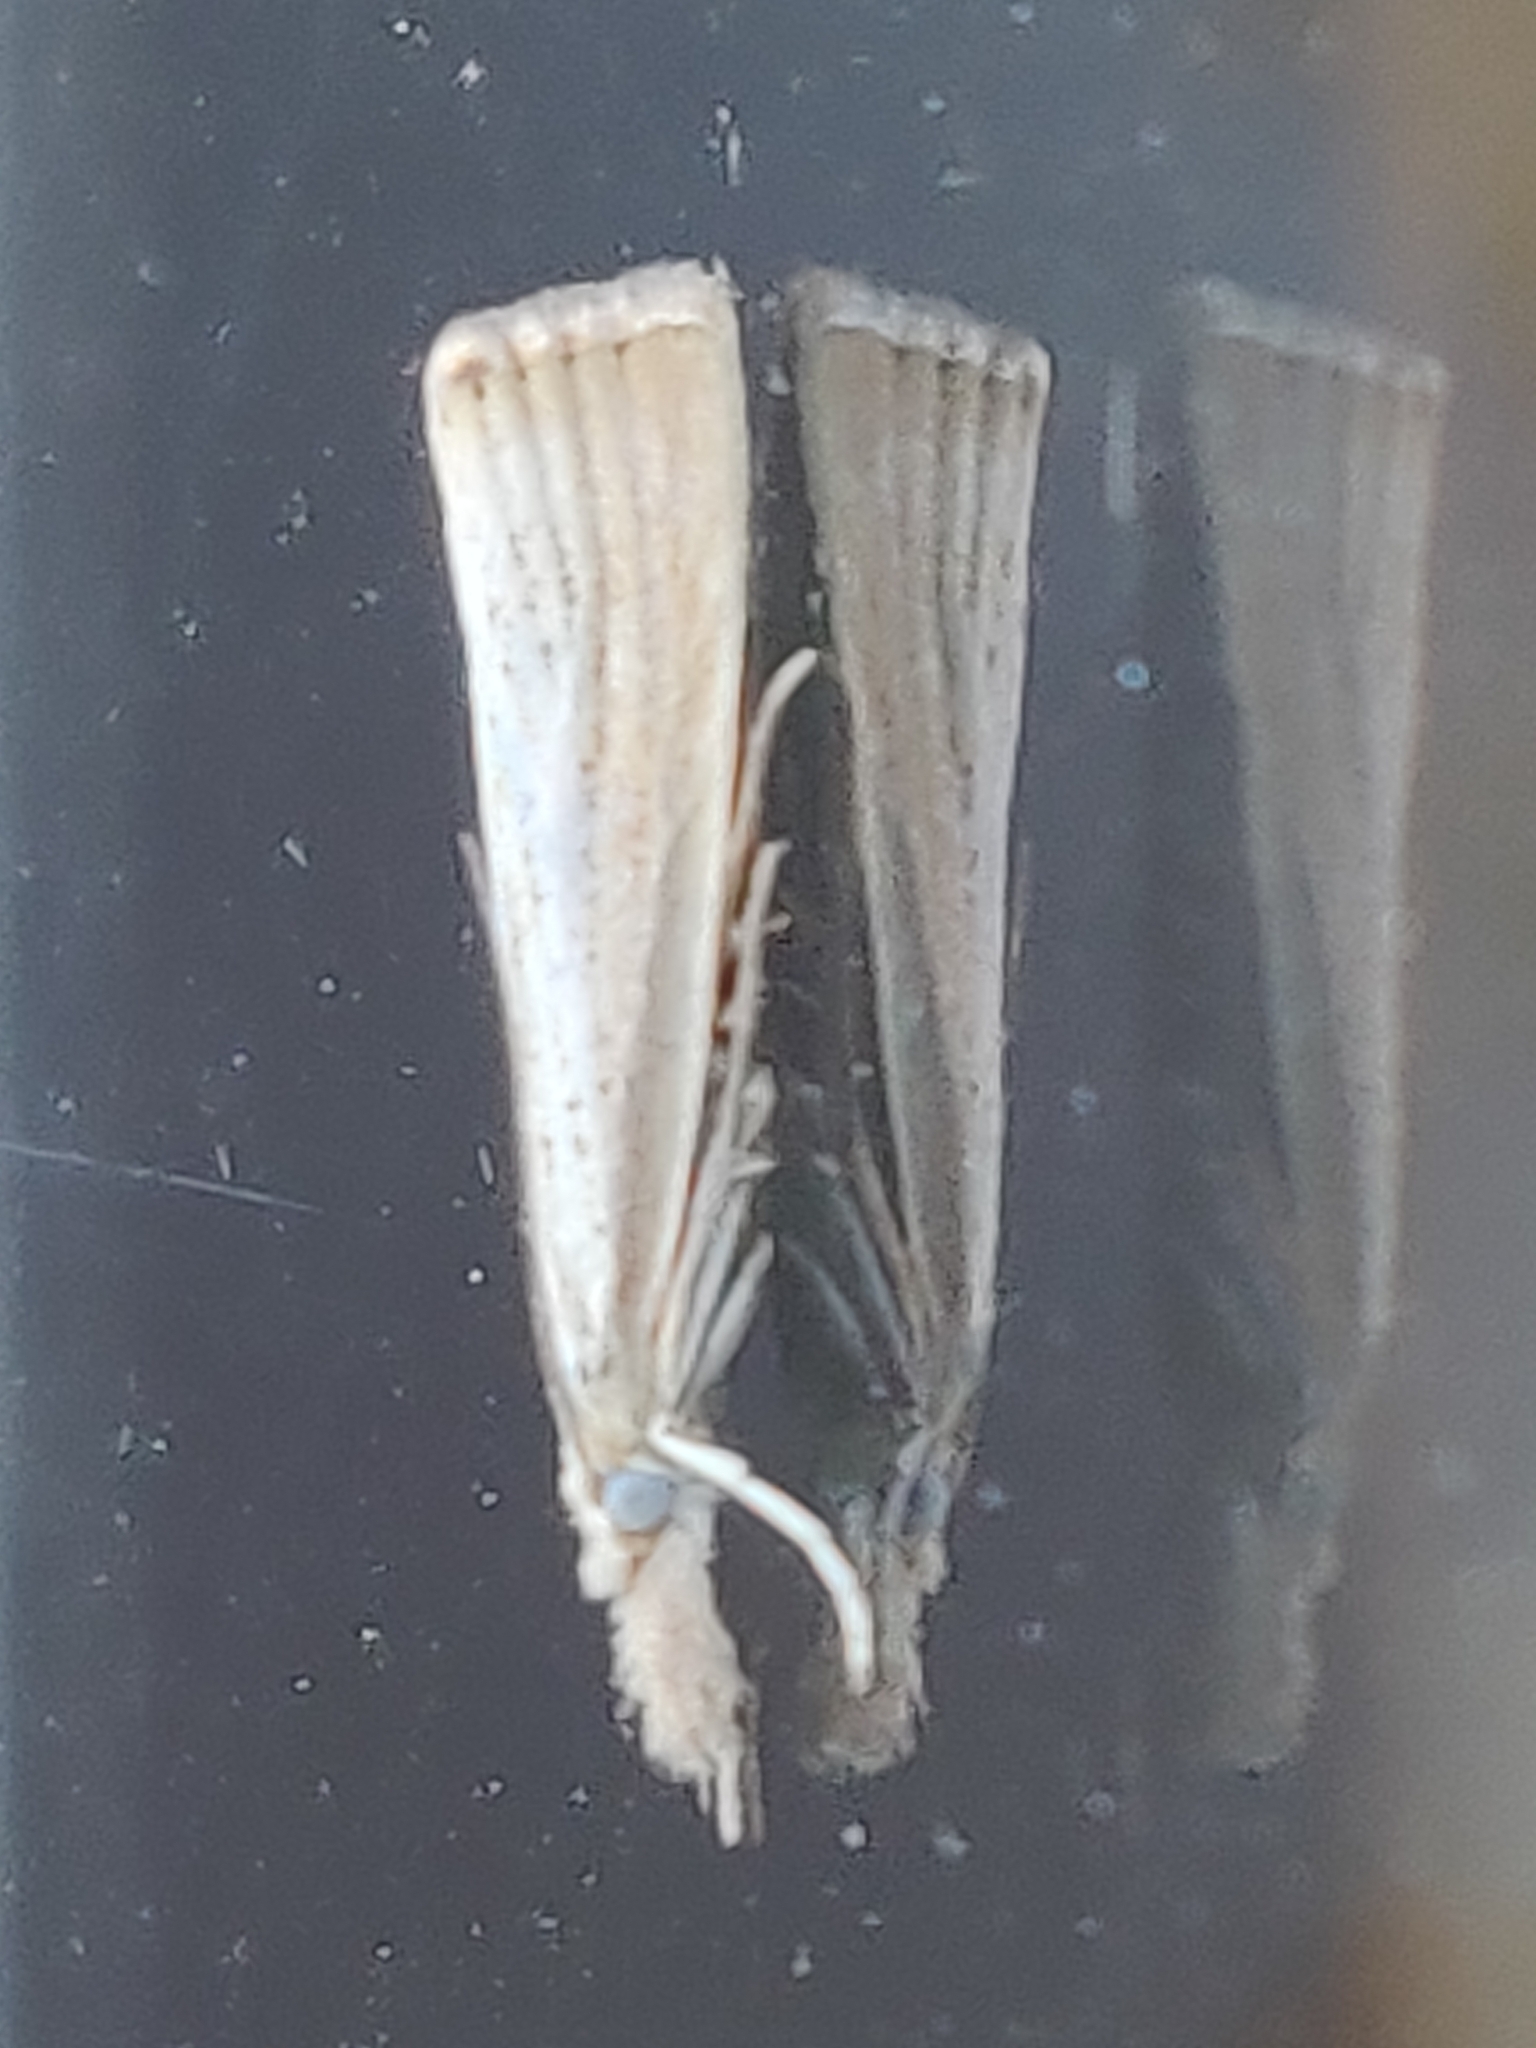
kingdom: Animalia
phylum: Arthropoda
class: Insecta
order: Lepidoptera
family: Crambidae
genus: Agriphila
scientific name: Agriphila straminella
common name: Straw grass-veneer
